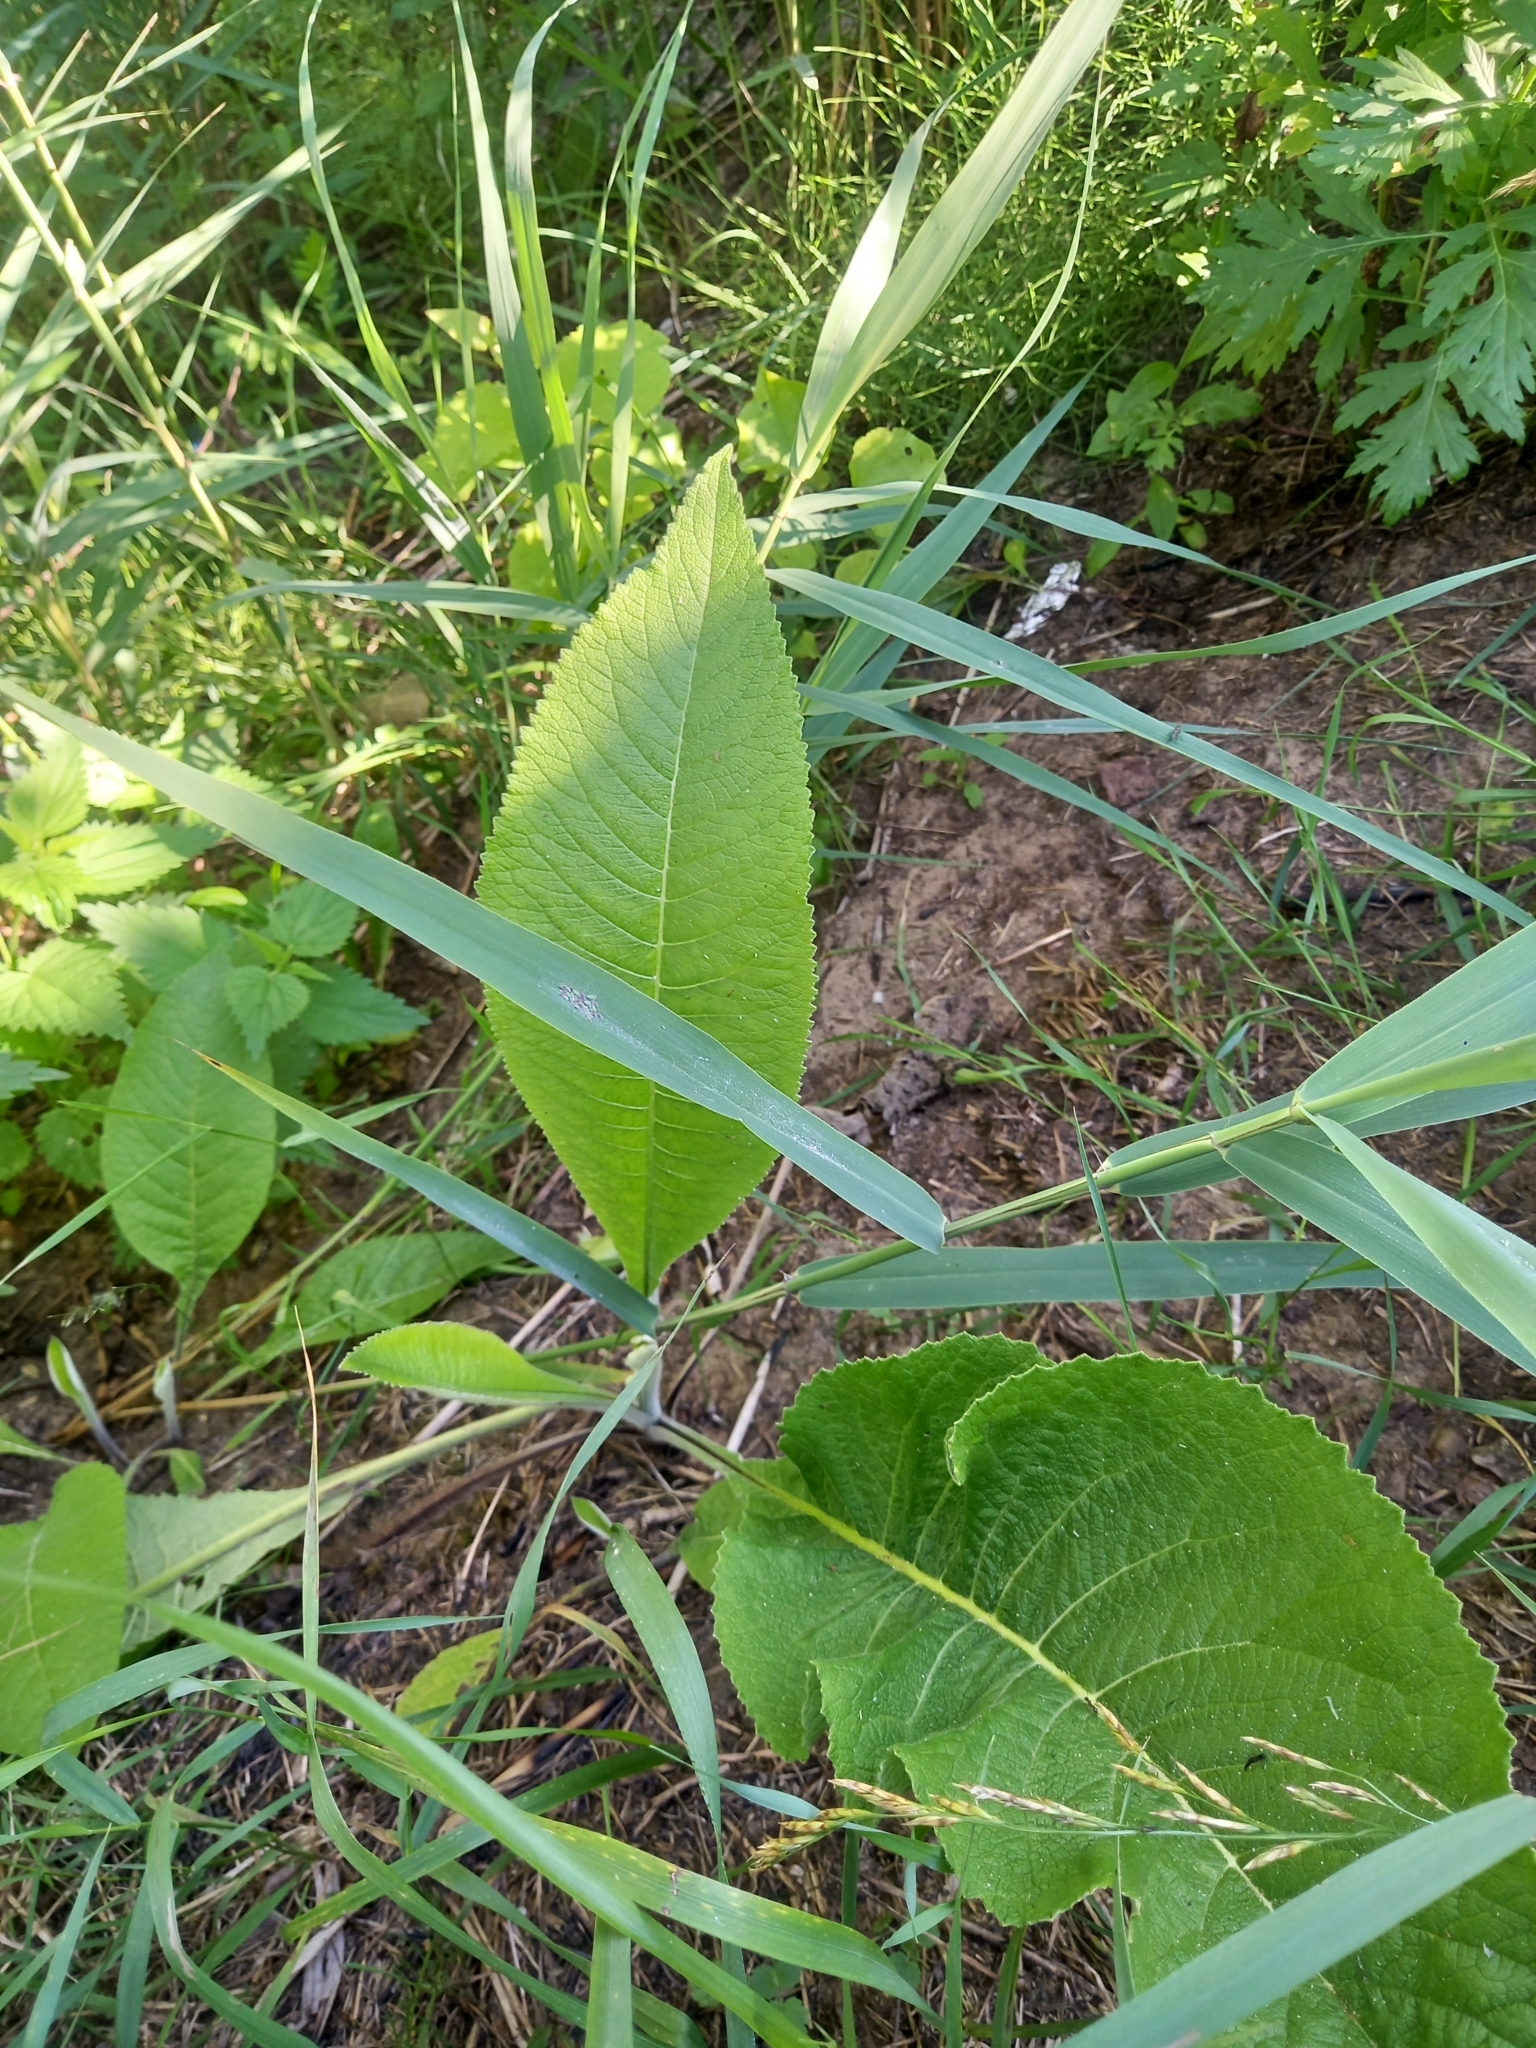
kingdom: Plantae
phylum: Tracheophyta
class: Magnoliopsida
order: Asterales
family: Asteraceae
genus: Inula
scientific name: Inula helenium
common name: Elecampane
